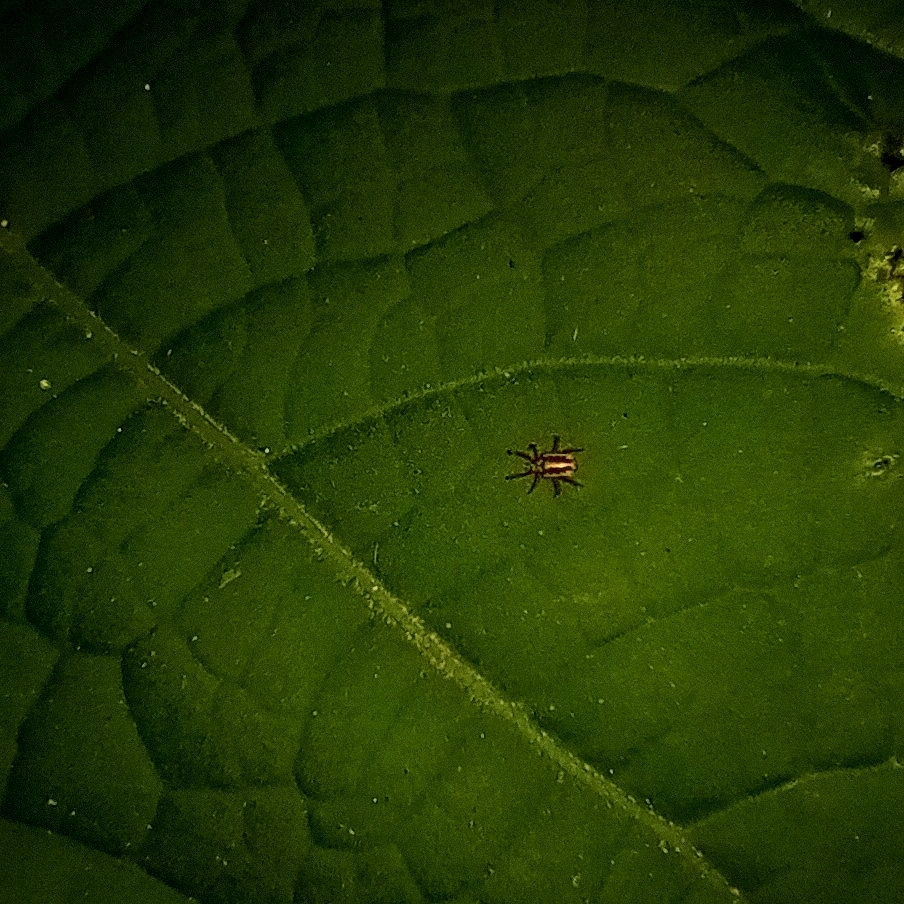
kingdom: Animalia
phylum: Arthropoda
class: Arachnida
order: Trombidiformes
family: Erythraeidae
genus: Balaustium
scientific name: Balaustium leanderi
